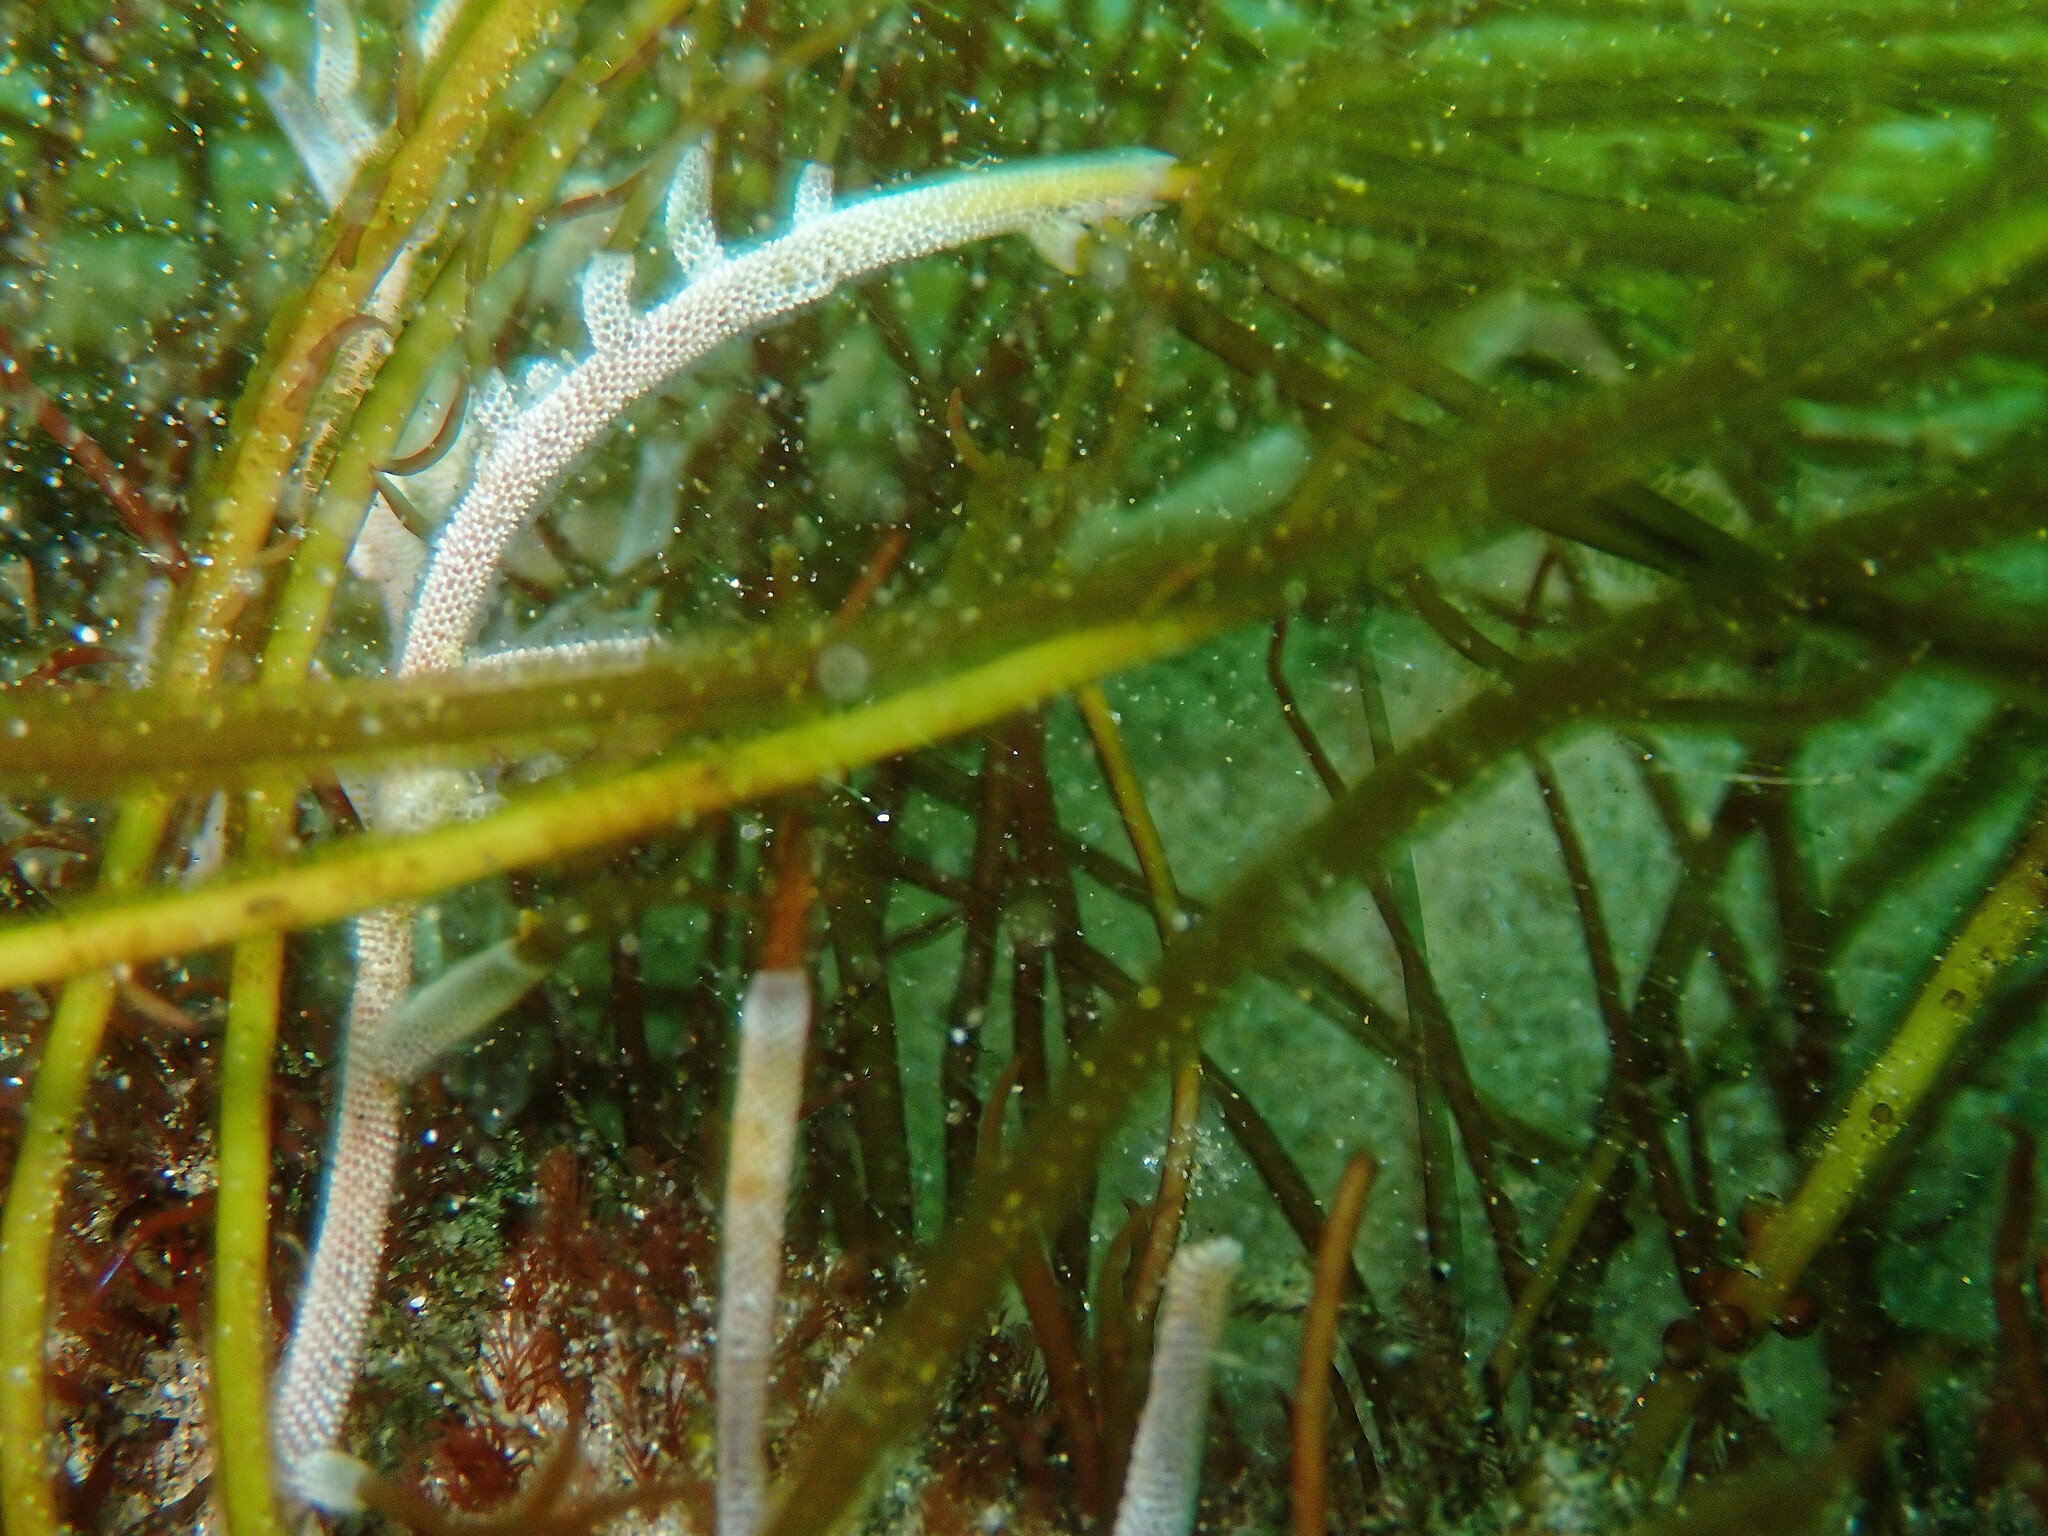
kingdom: Animalia
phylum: Bryozoa
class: Gymnolaemata
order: Cheilostomatida
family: Membraniporidae
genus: Jellyella
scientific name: Jellyella tuberculata
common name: Sargassum bryozoan
